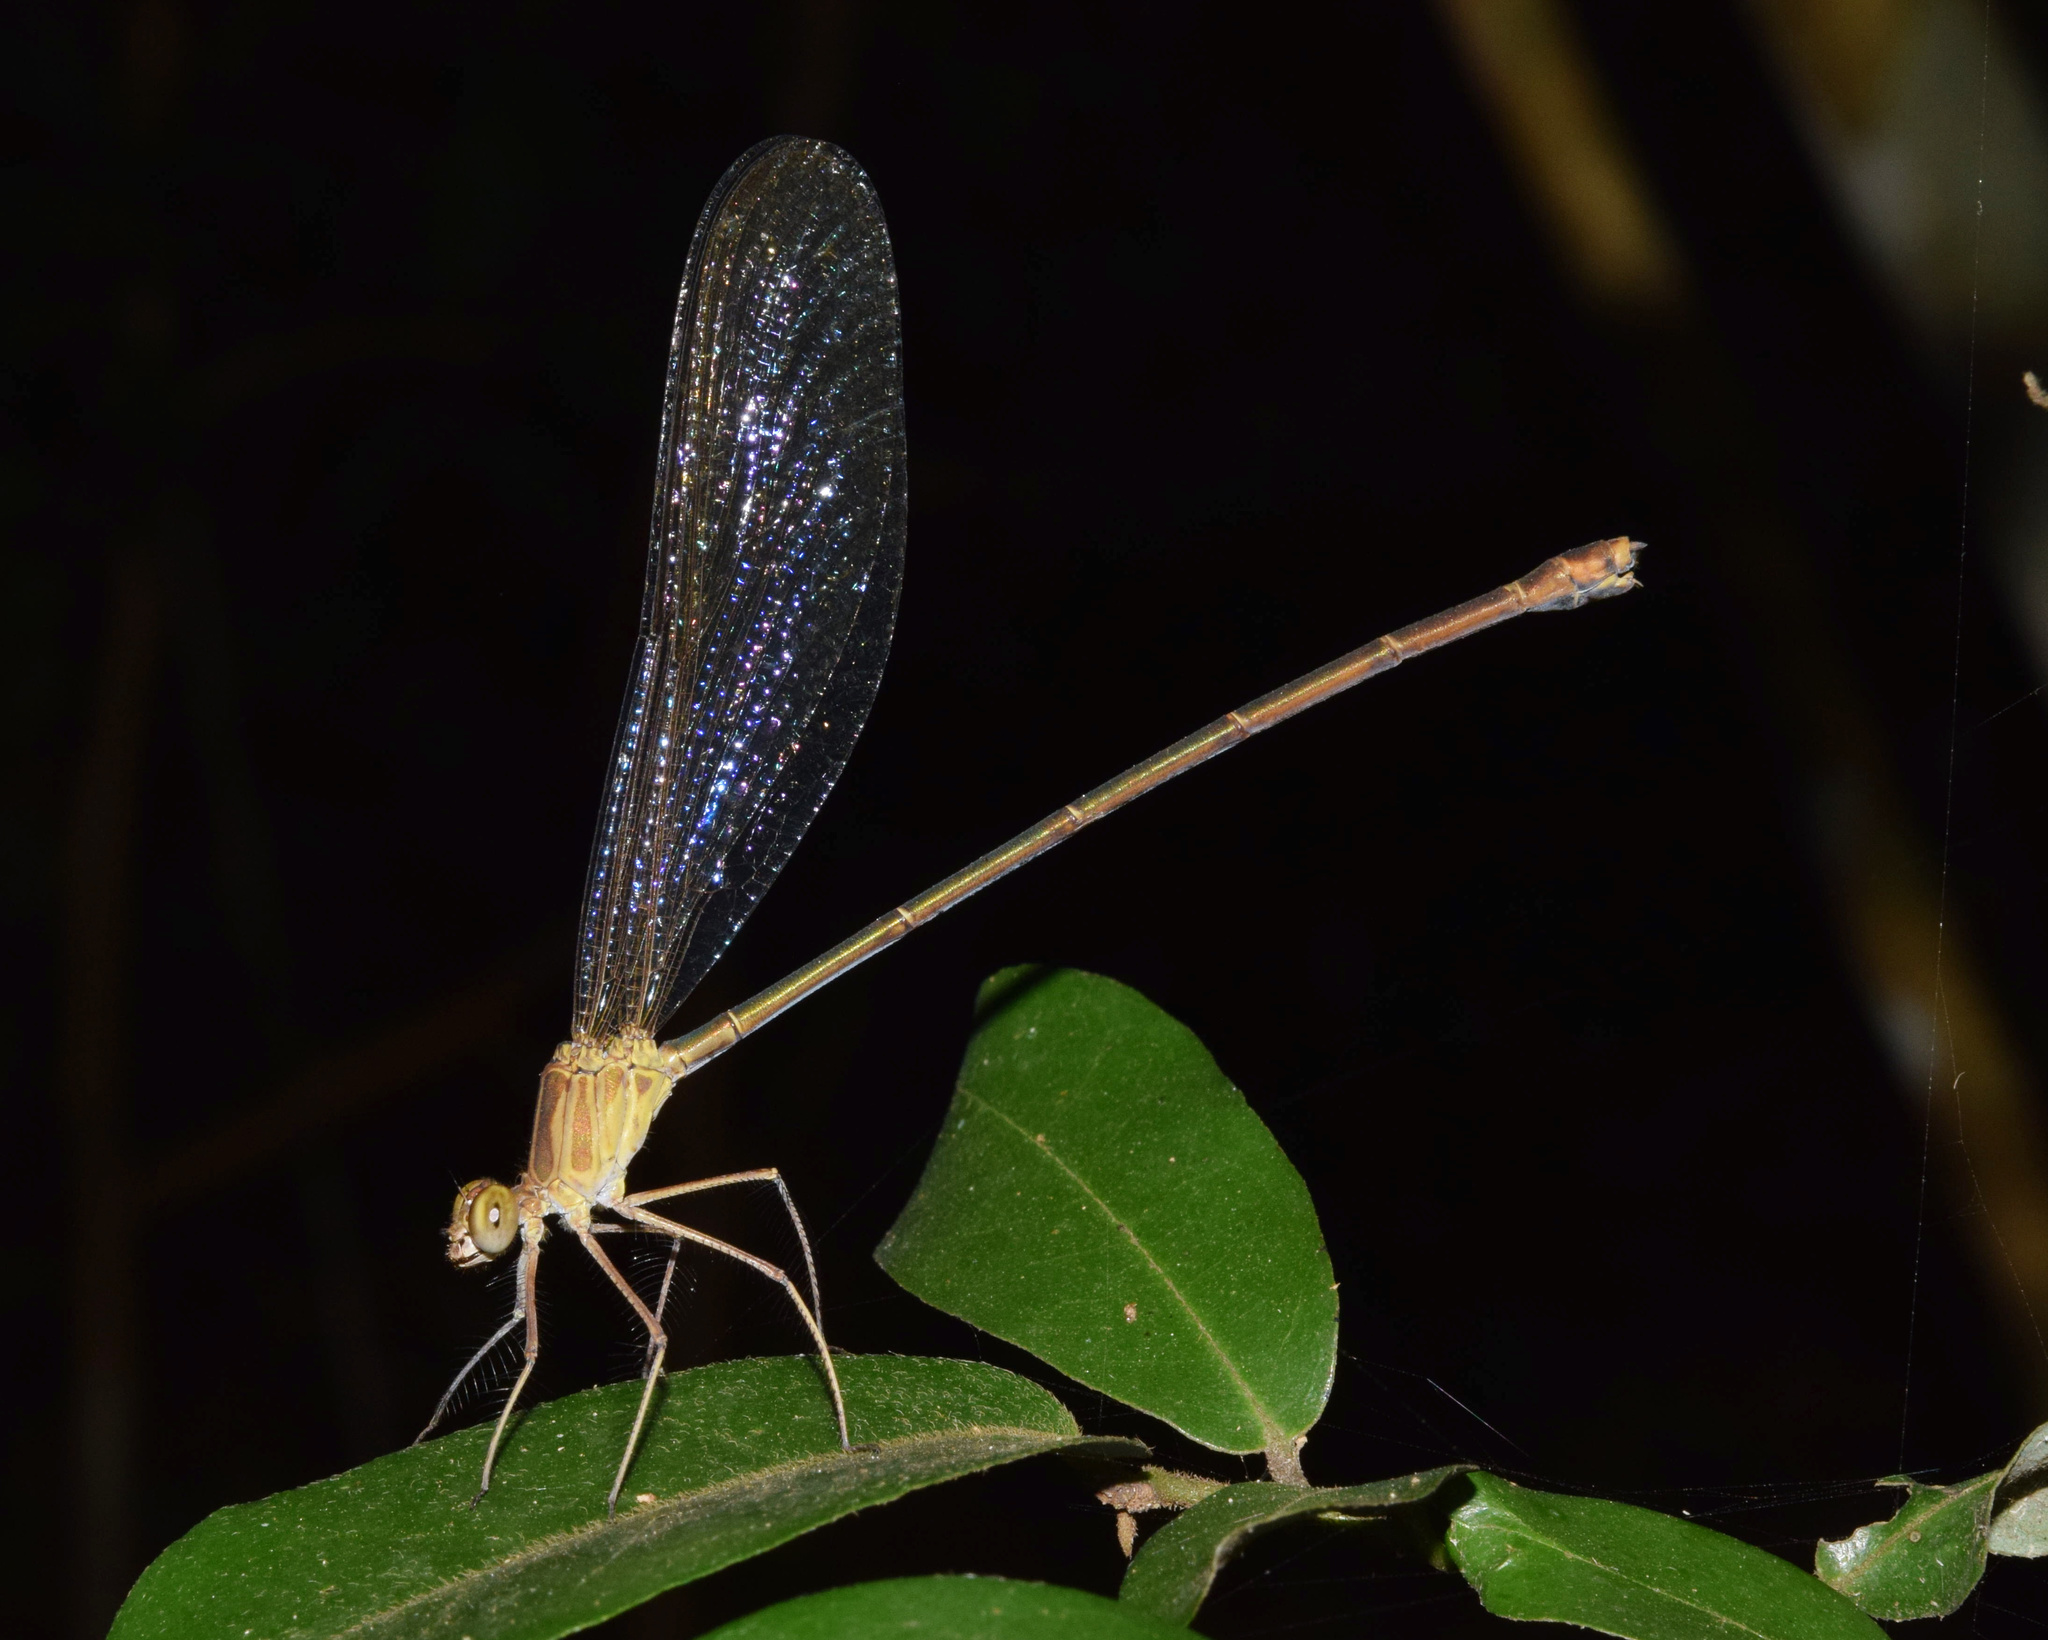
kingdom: Animalia
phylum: Arthropoda
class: Insecta
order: Odonata
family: Calopterygidae
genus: Phaon
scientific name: Phaon iridipennis
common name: Glistening demoiselle
